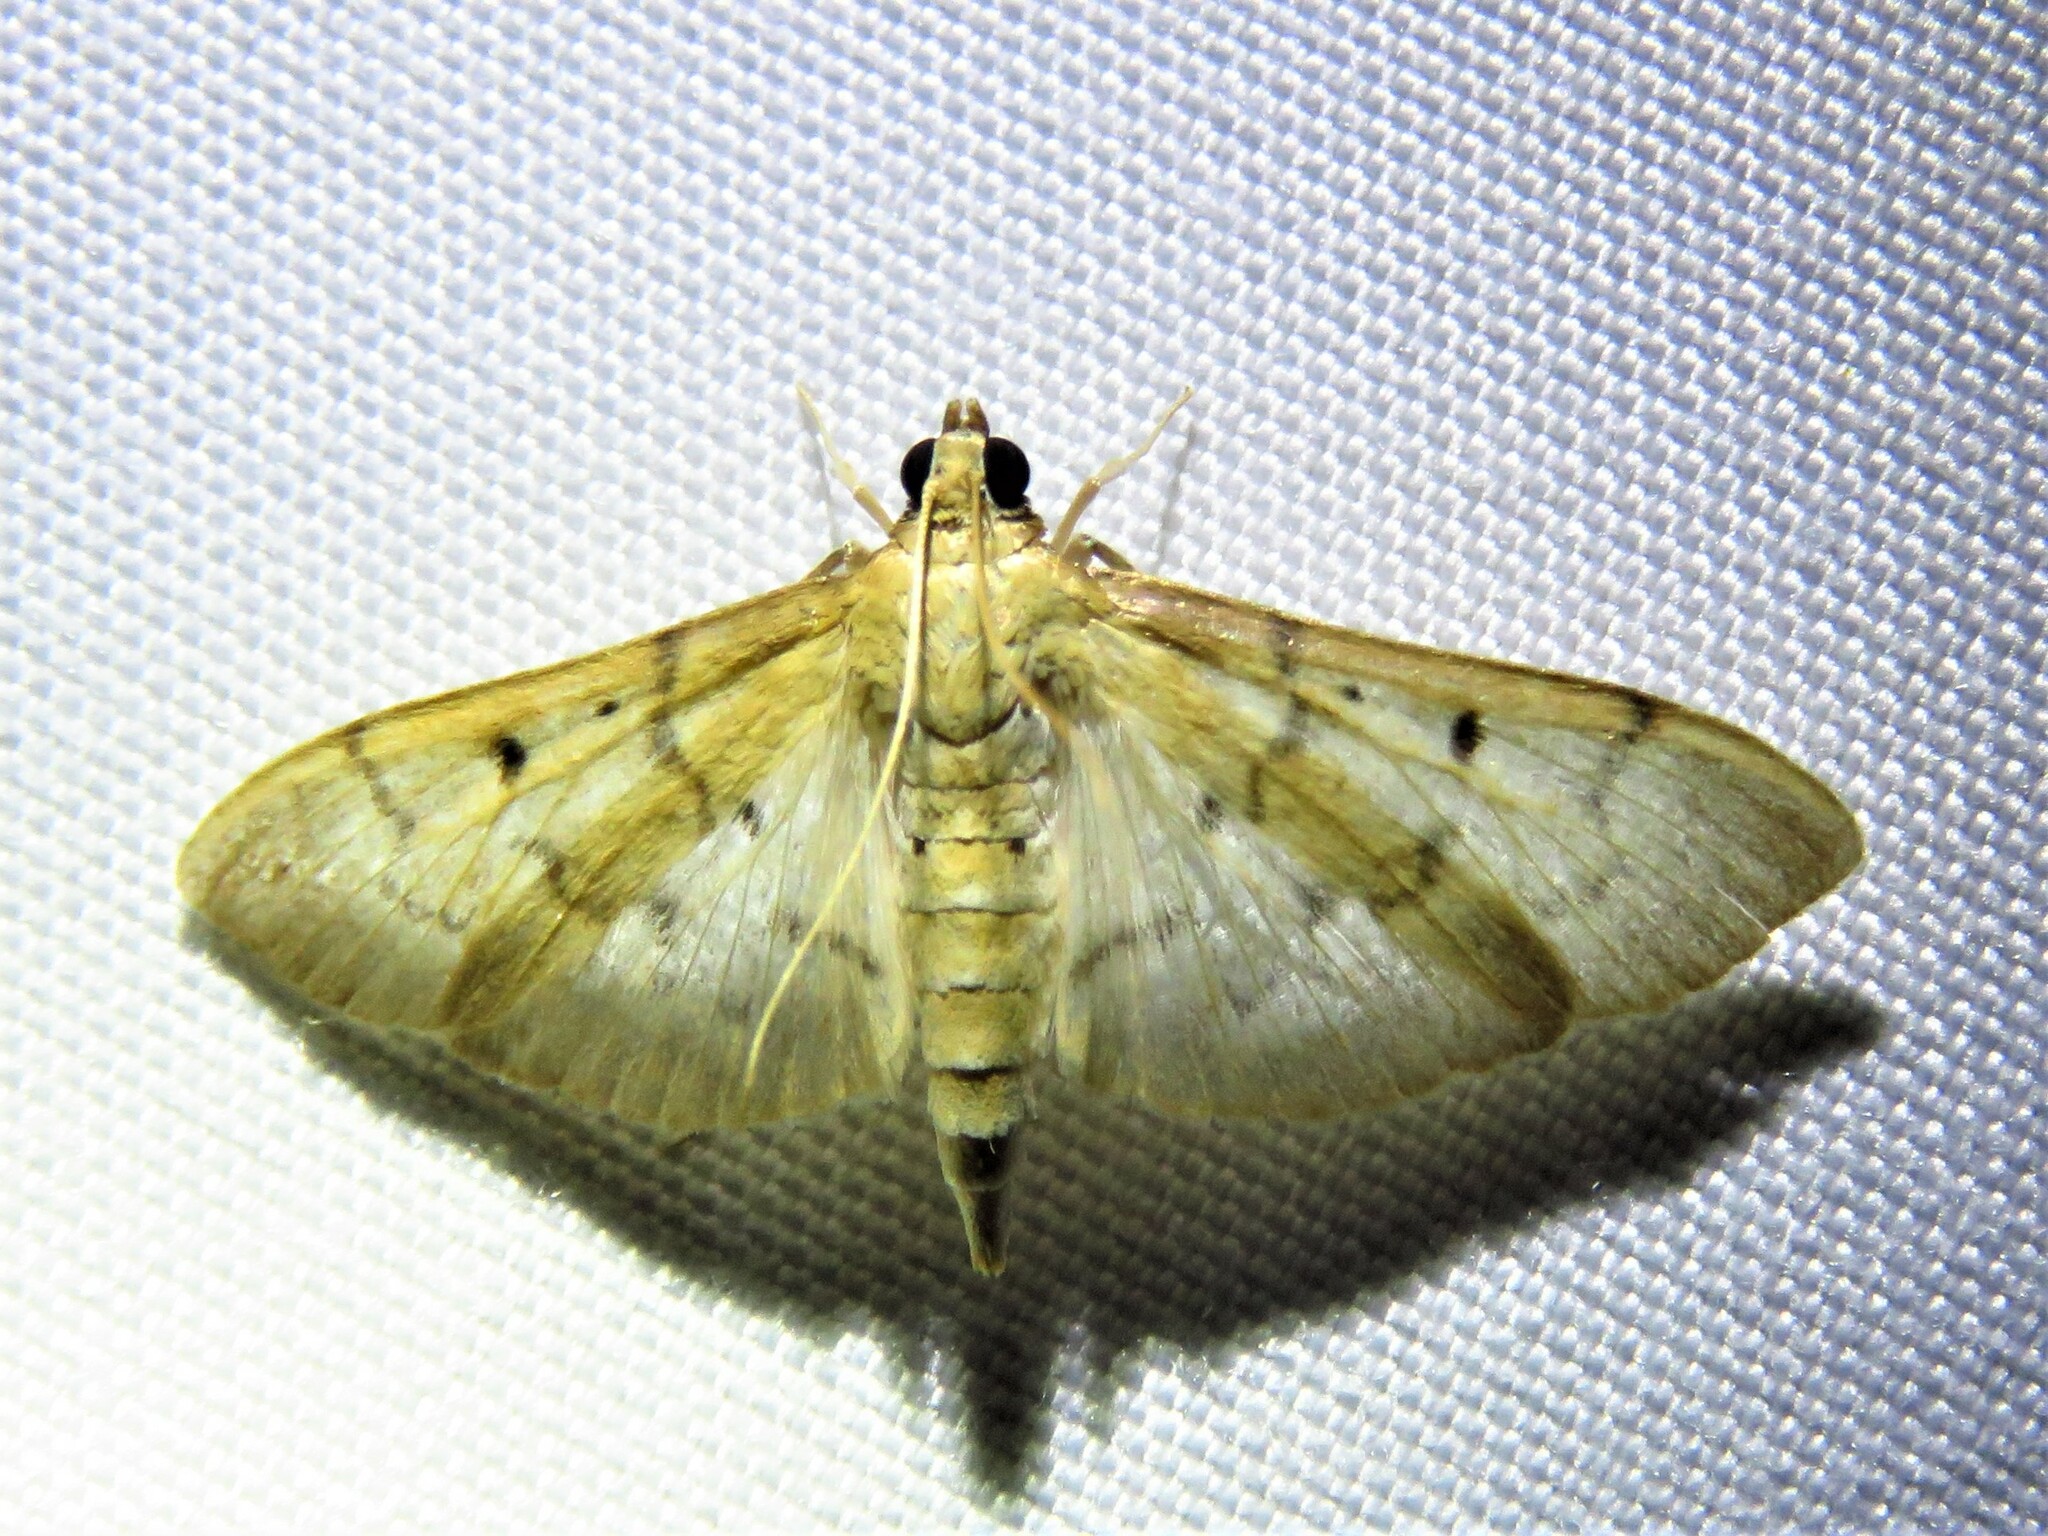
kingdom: Animalia
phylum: Arthropoda
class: Insecta
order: Lepidoptera
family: Crambidae
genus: Herpetogramma
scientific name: Herpetogramma bipunctalis
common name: Southern beet webworm
